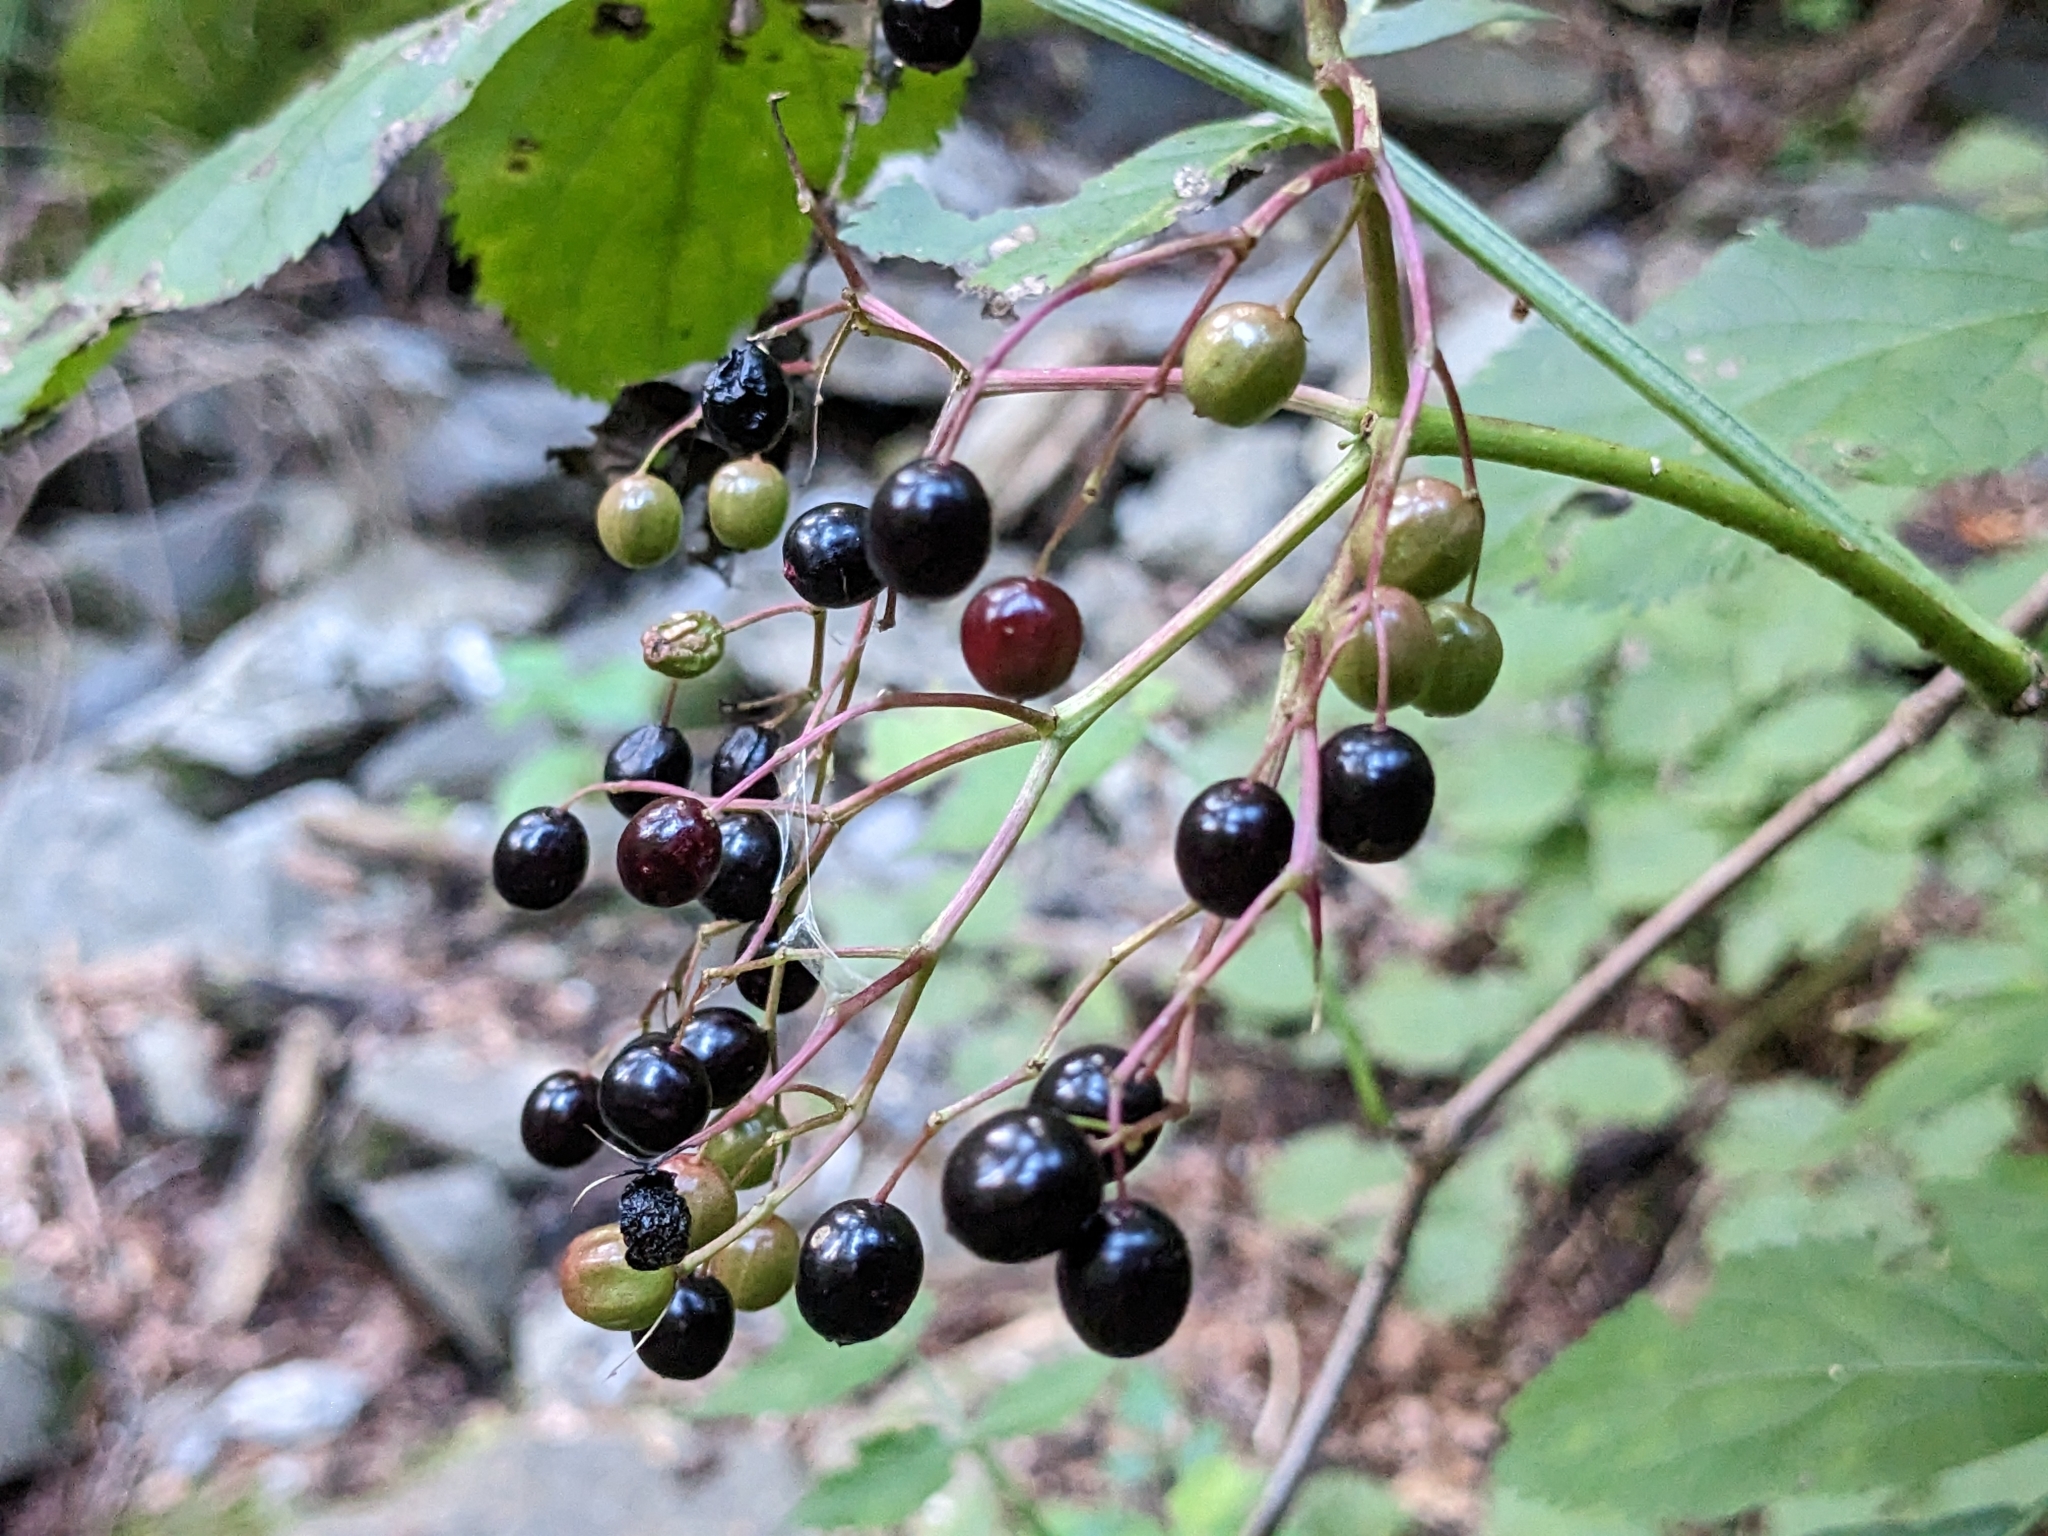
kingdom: Plantae
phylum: Tracheophyta
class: Magnoliopsida
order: Dipsacales
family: Viburnaceae
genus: Sambucus
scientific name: Sambucus nigra
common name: Elder
